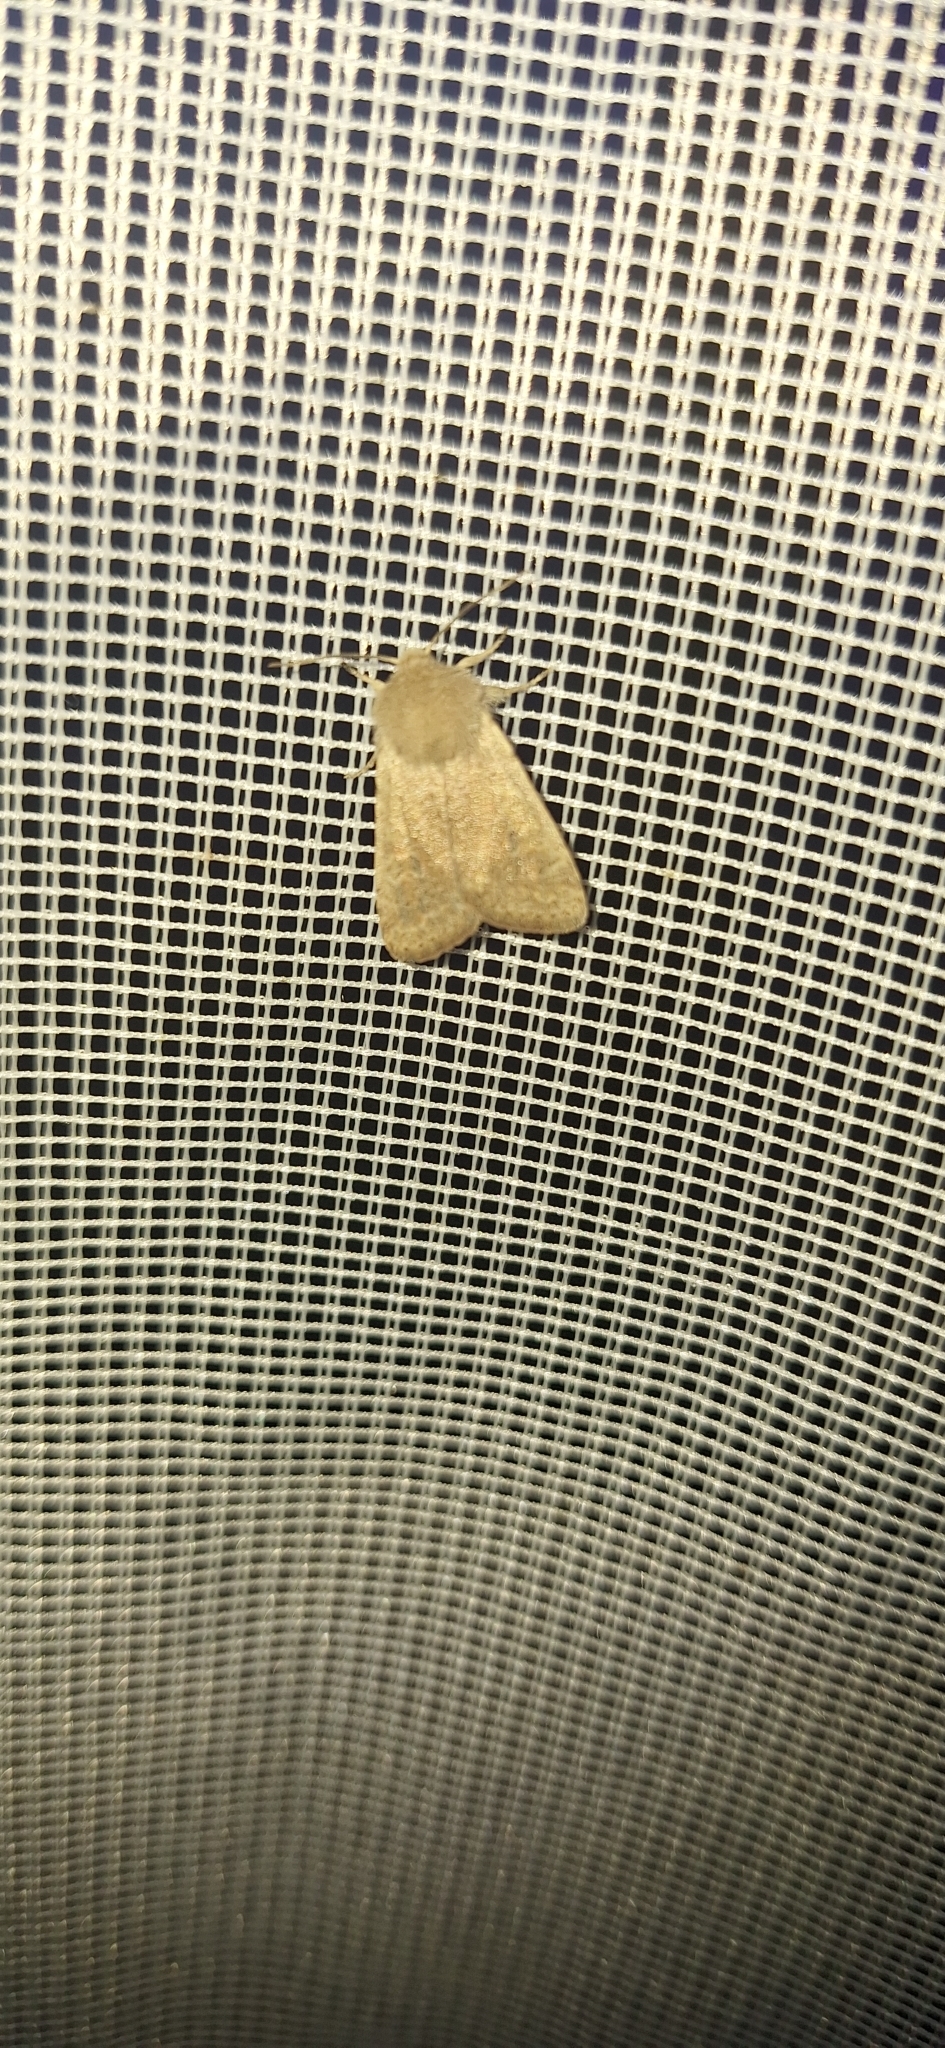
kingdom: Animalia
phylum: Arthropoda
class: Insecta
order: Lepidoptera
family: Noctuidae
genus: Orthosia
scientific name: Orthosia cruda
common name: Small quaker
